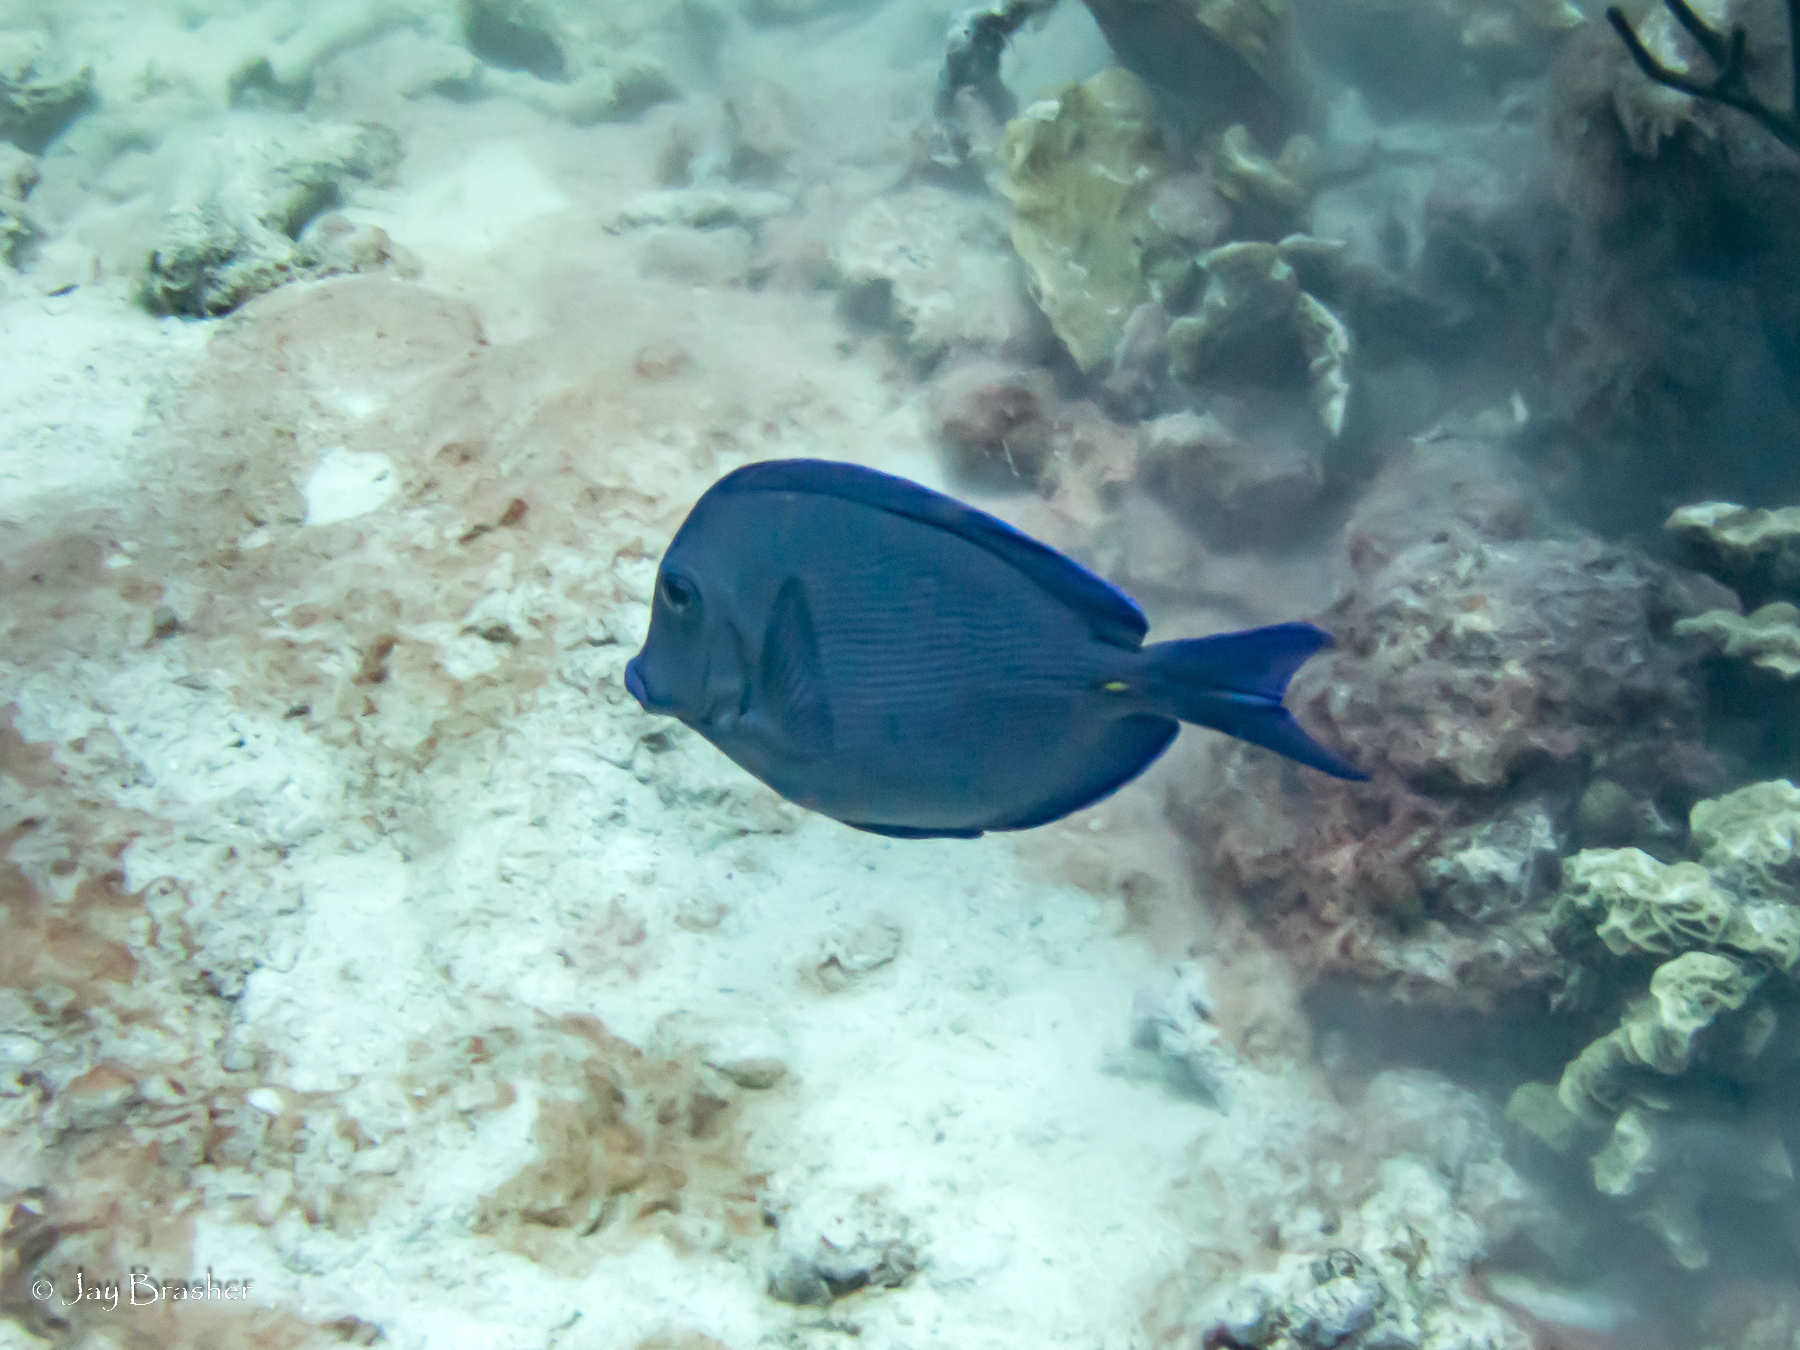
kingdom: Animalia
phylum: Chordata
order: Perciformes
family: Acanthuridae
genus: Acanthurus
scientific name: Acanthurus coeruleus
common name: Blue tang
